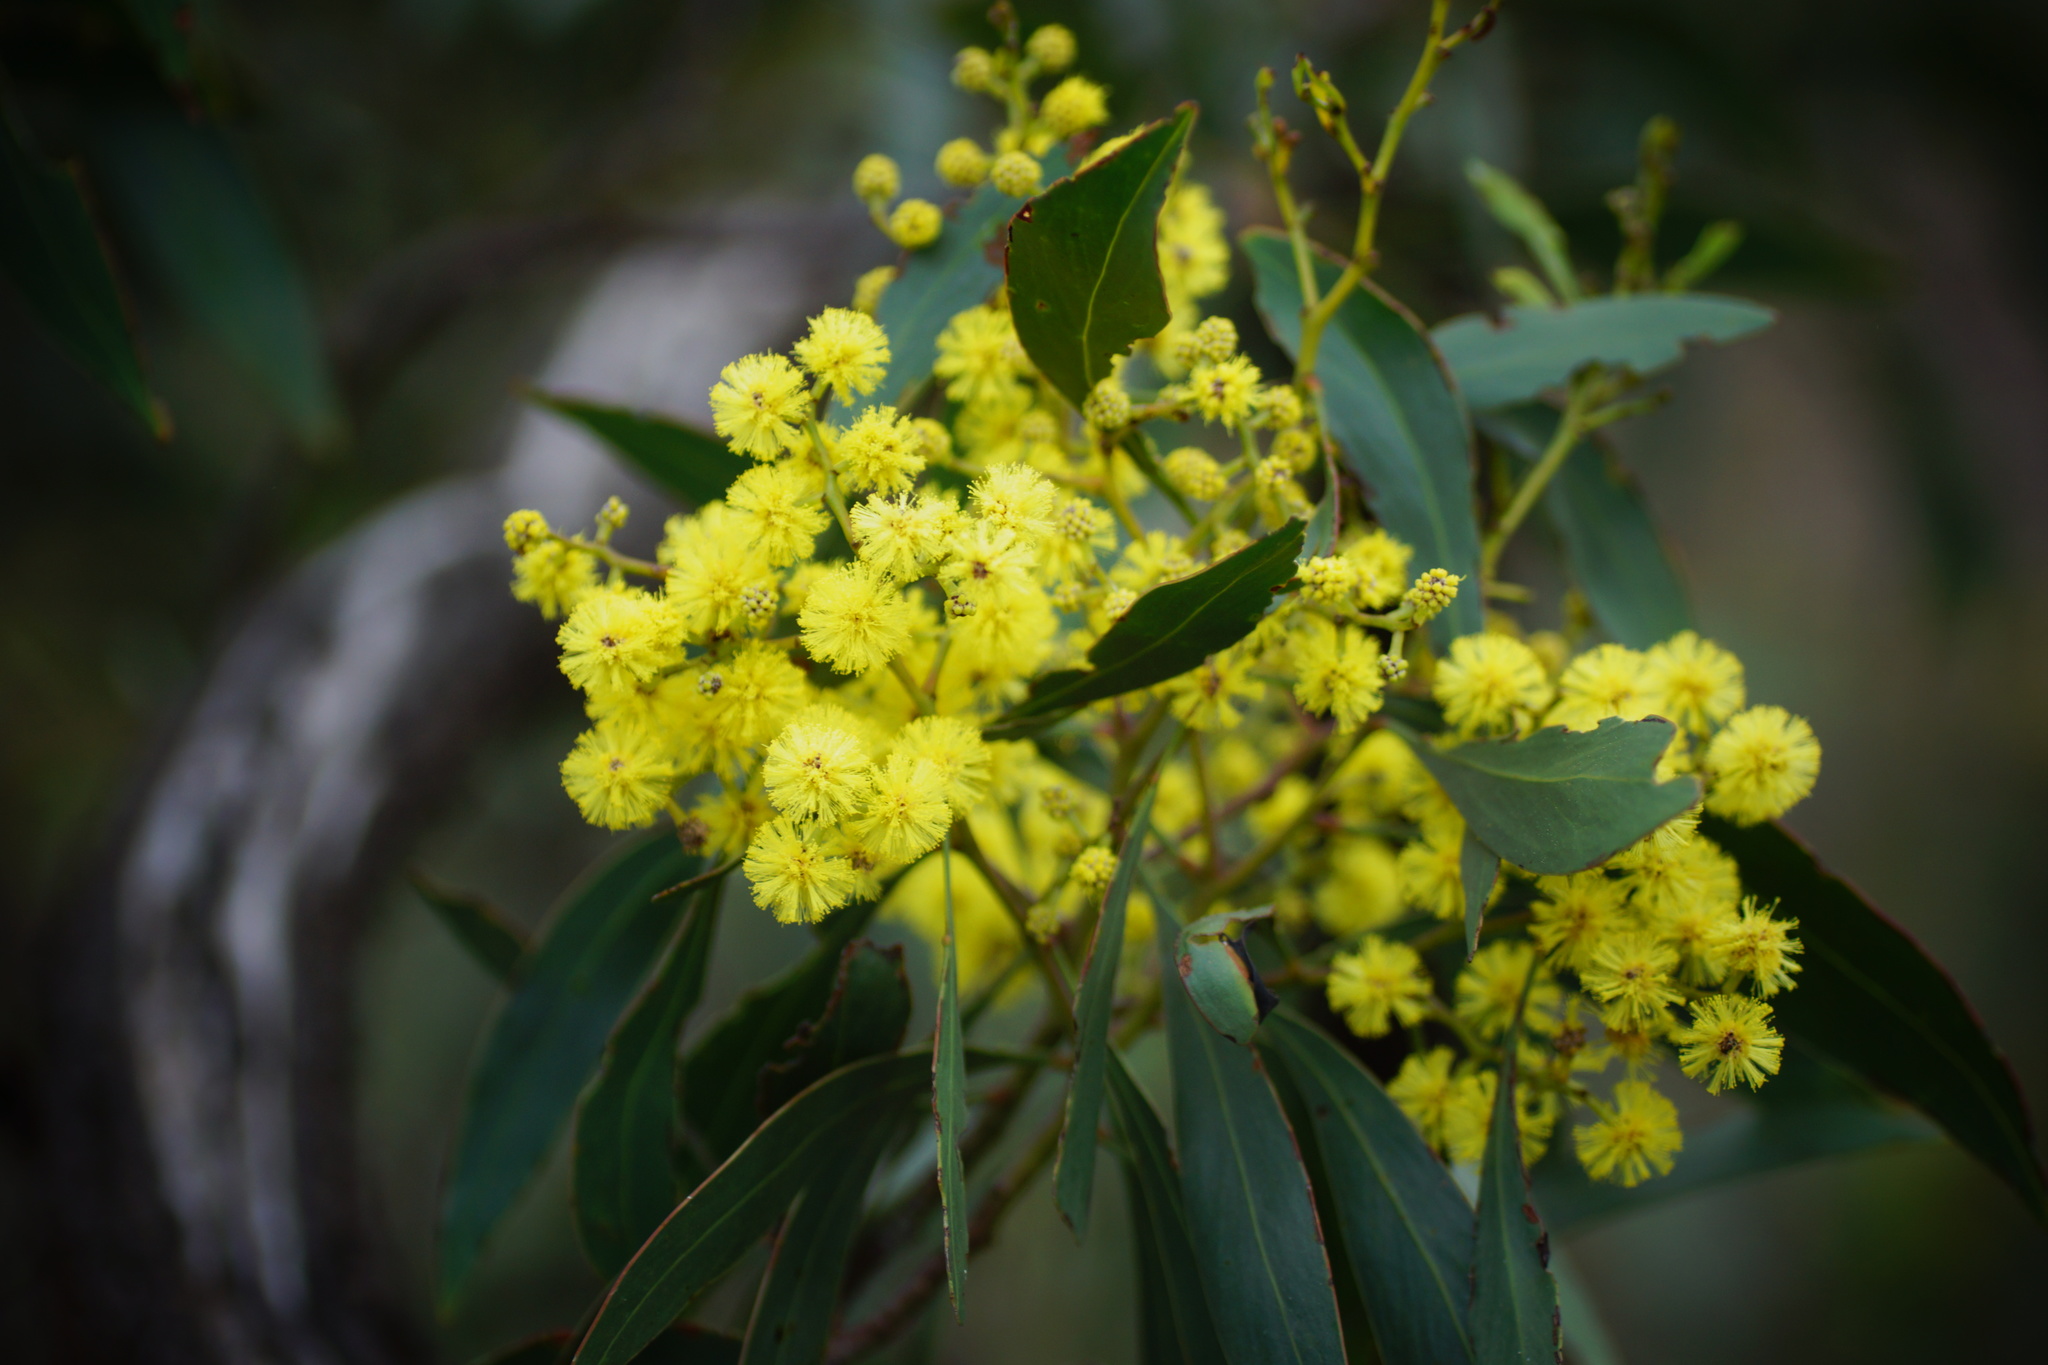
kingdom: Plantae
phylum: Tracheophyta
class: Magnoliopsida
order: Fabales
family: Fabaceae
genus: Acacia
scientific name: Acacia pycnantha
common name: Golden wattle
